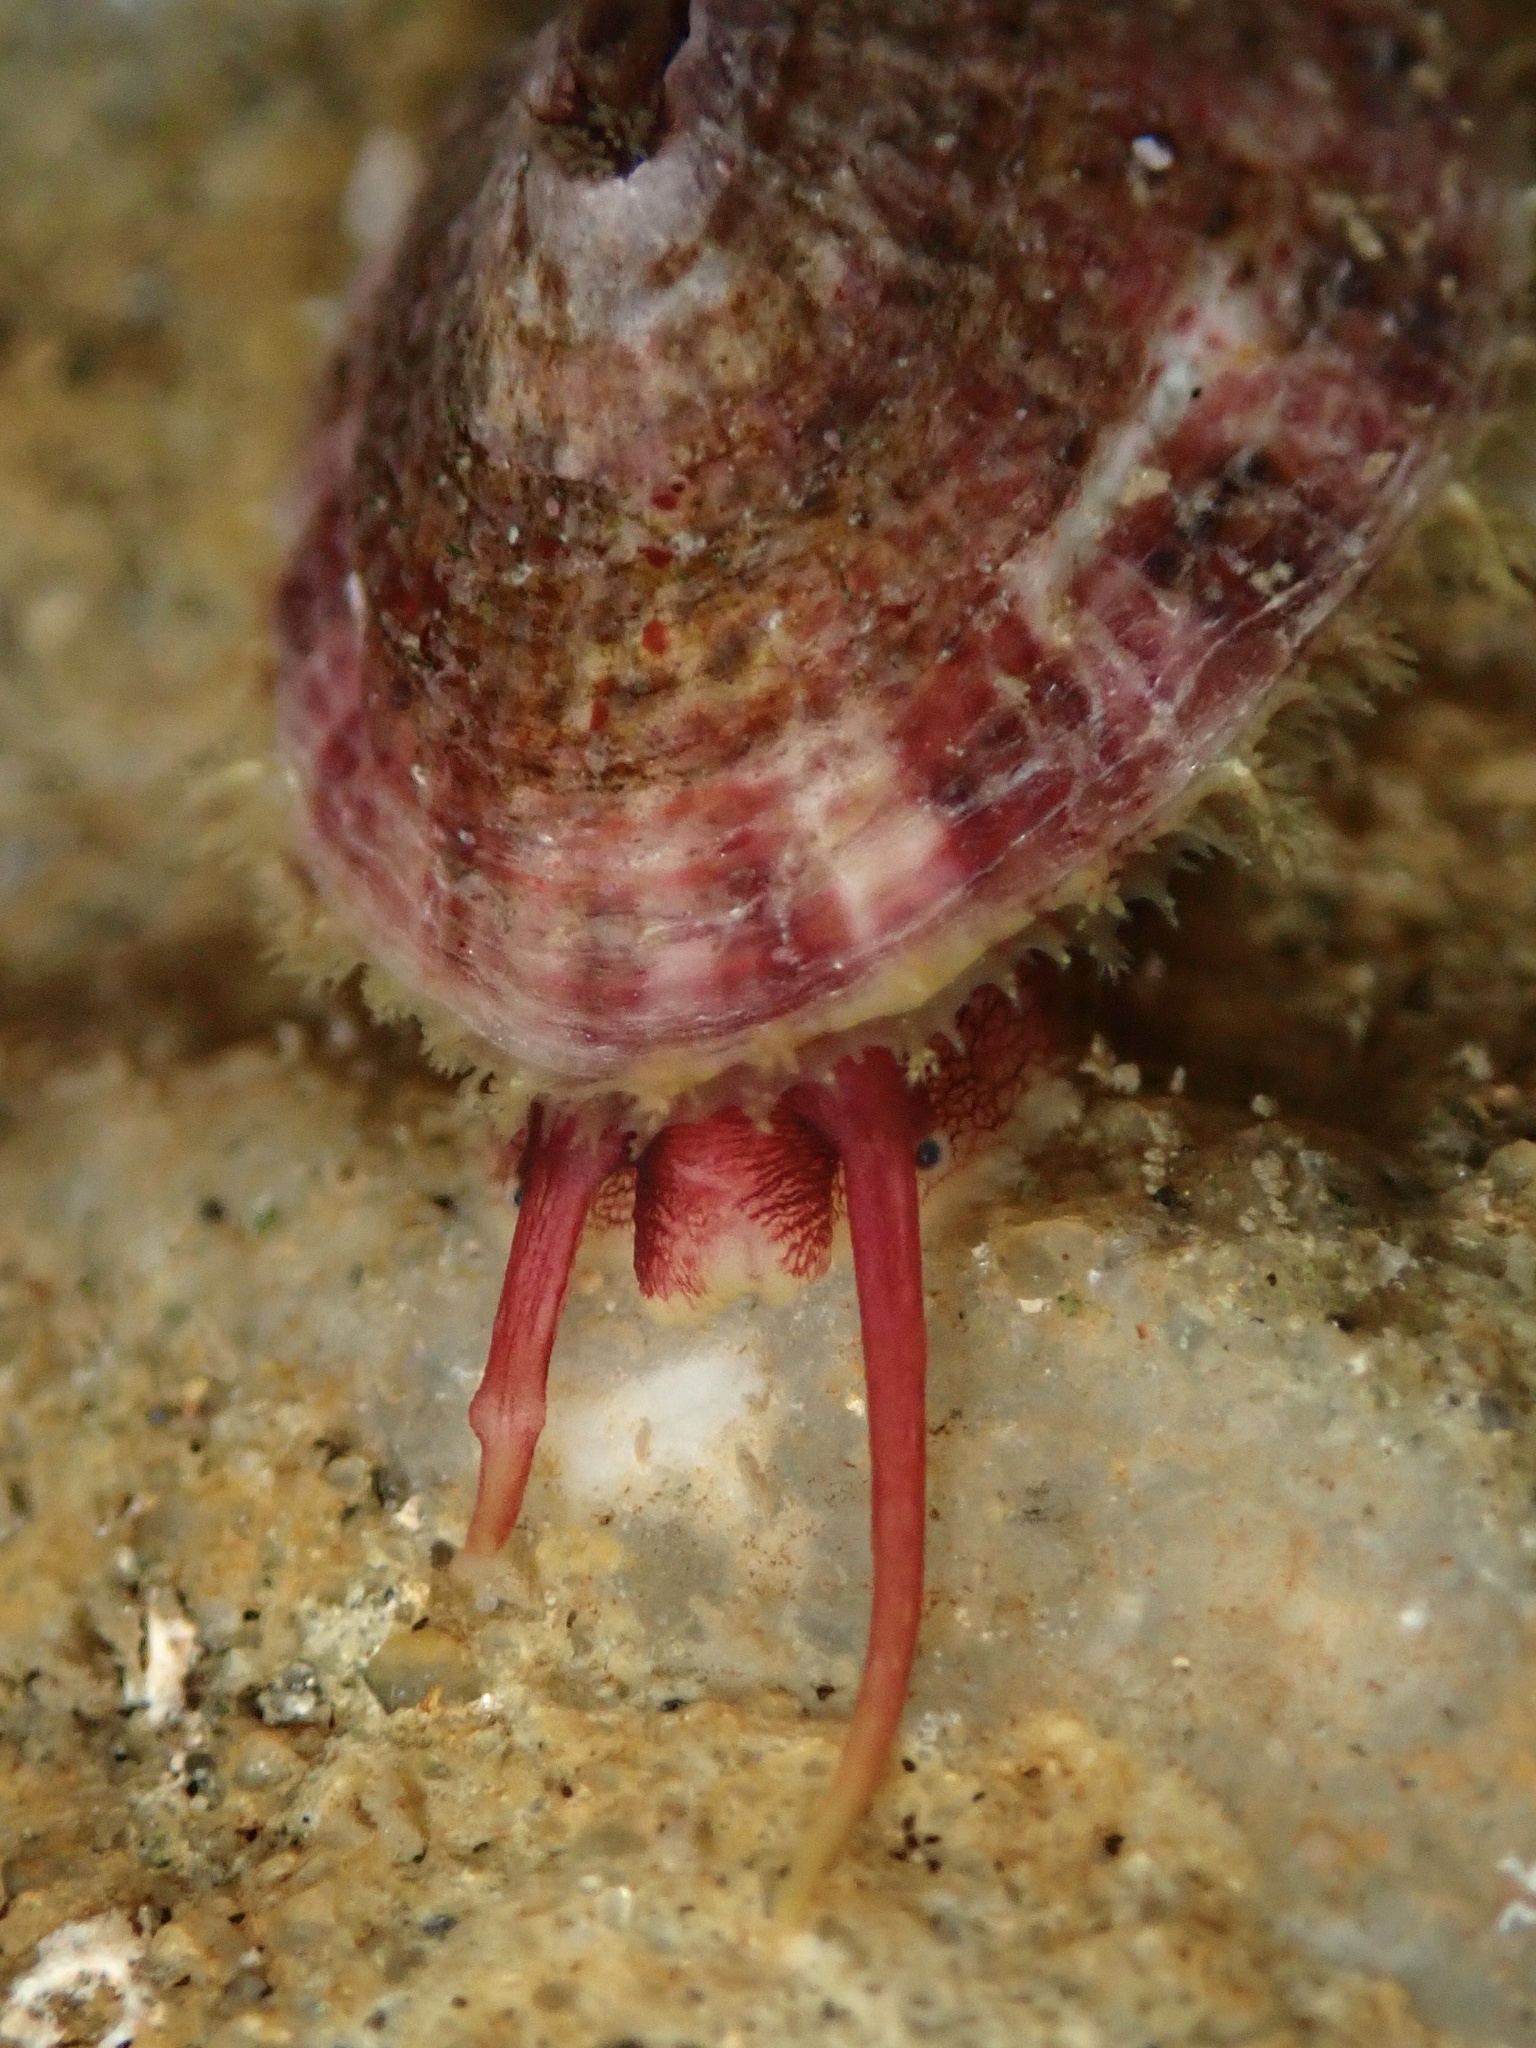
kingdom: Animalia
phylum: Mollusca
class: Gastropoda
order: Lepetellida
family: Fissurellidae
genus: Fissurella
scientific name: Fissurella volcano
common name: Volcano keyhole limpet
